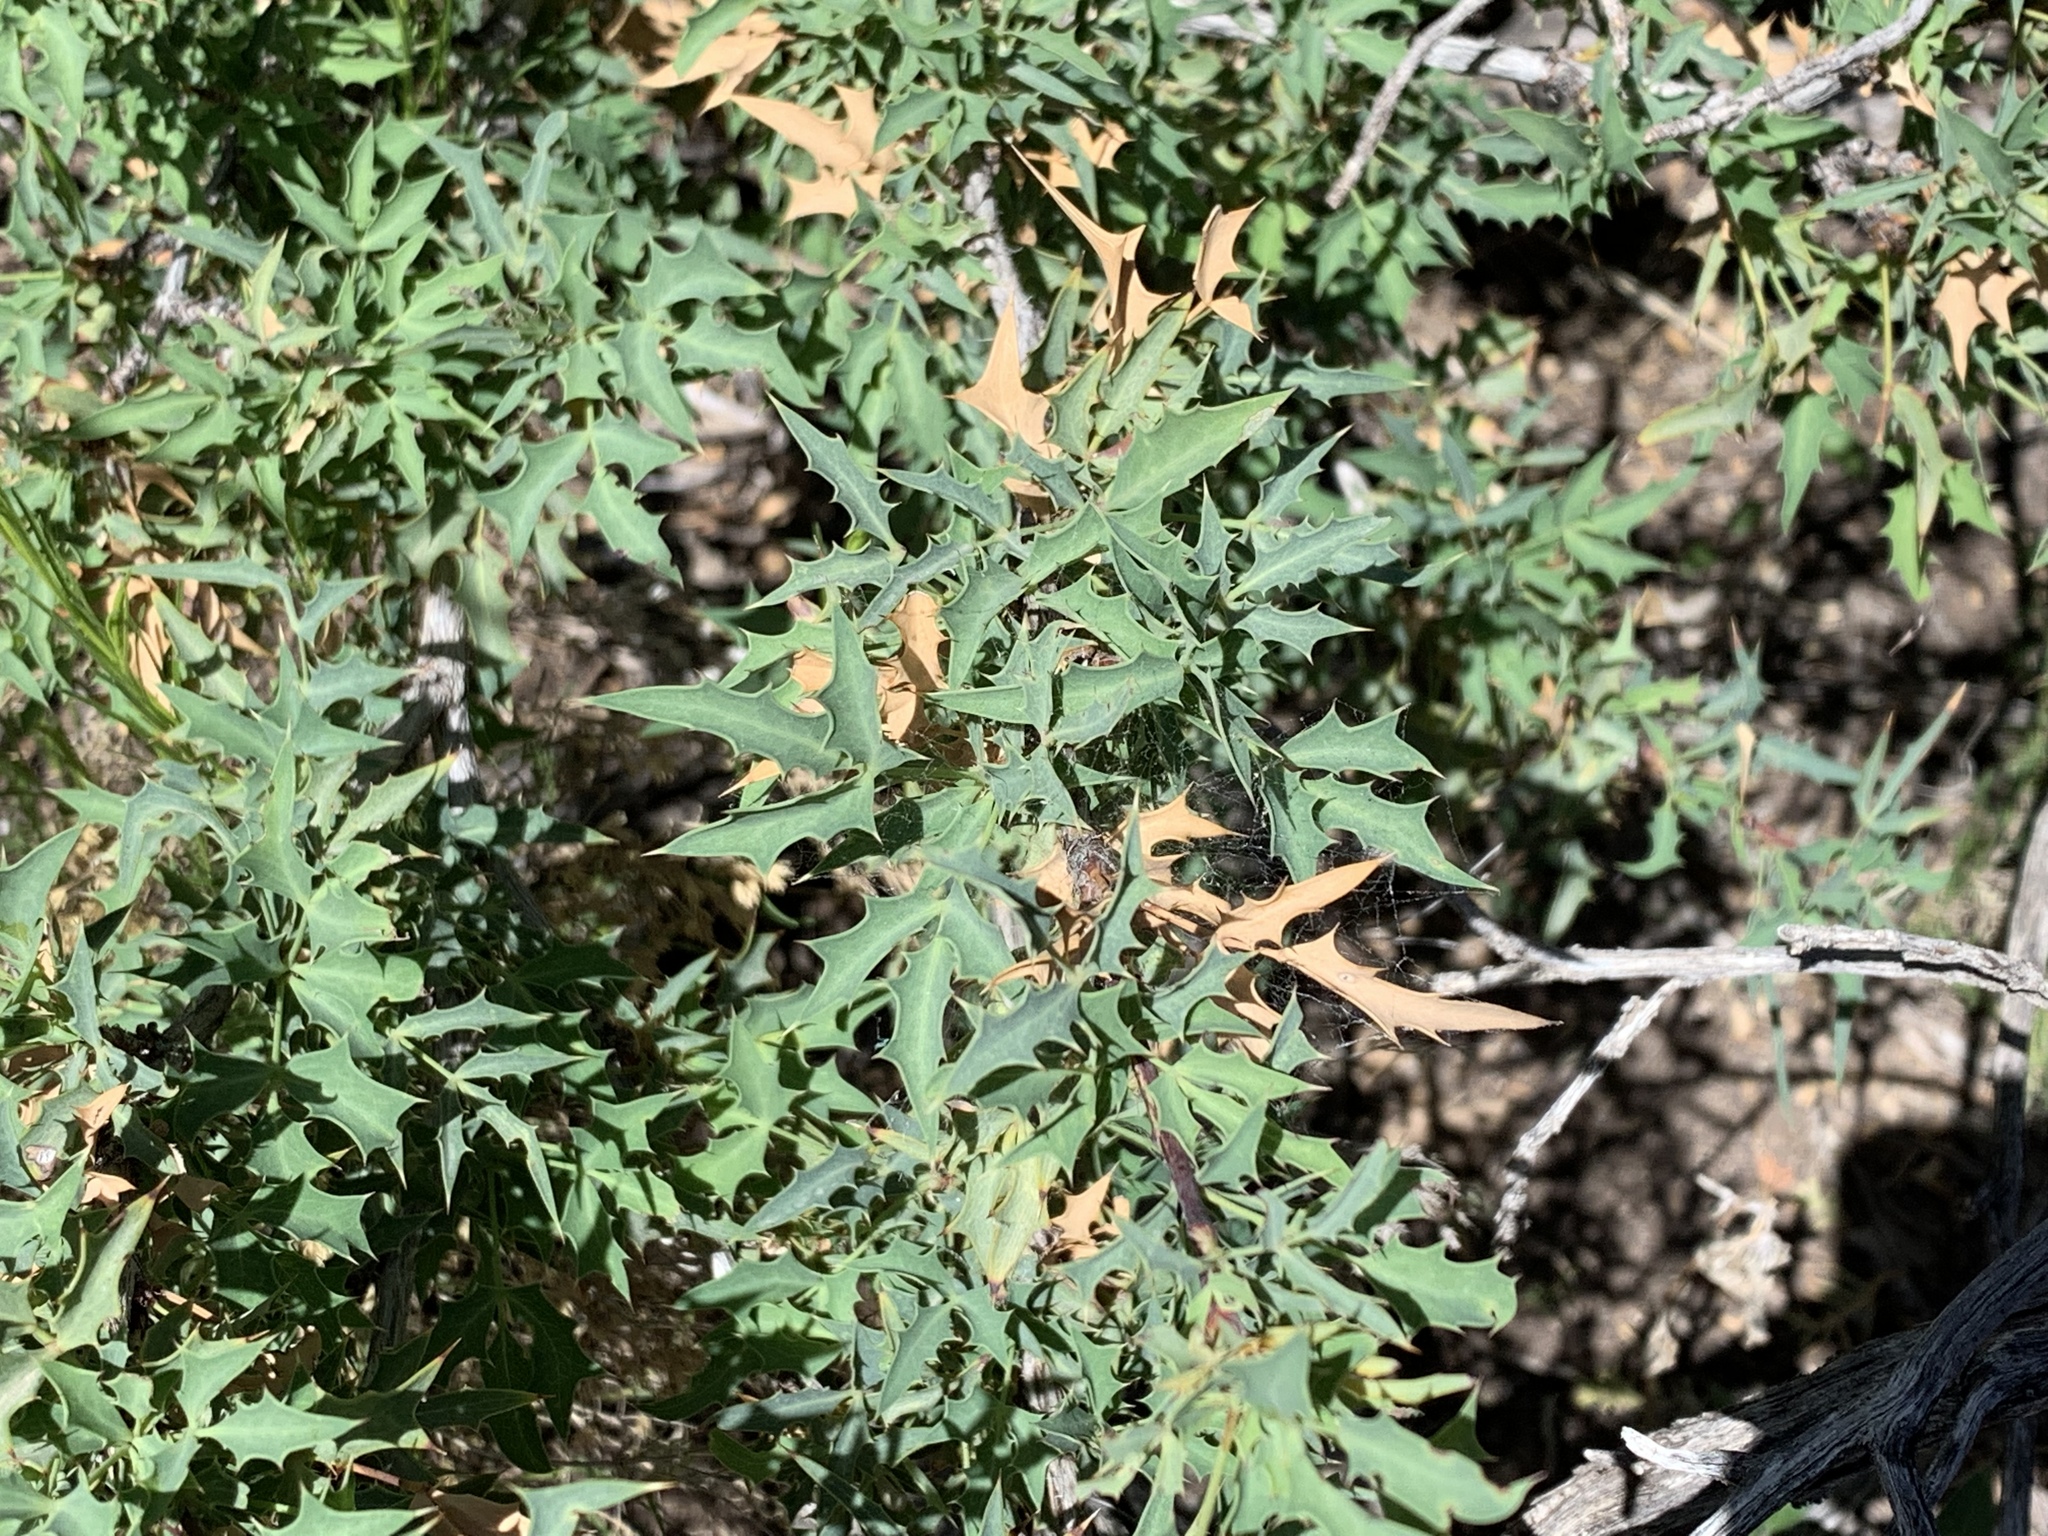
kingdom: Plantae
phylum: Tracheophyta
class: Magnoliopsida
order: Ranunculales
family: Berberidaceae
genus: Alloberberis
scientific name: Alloberberis haematocarpa
